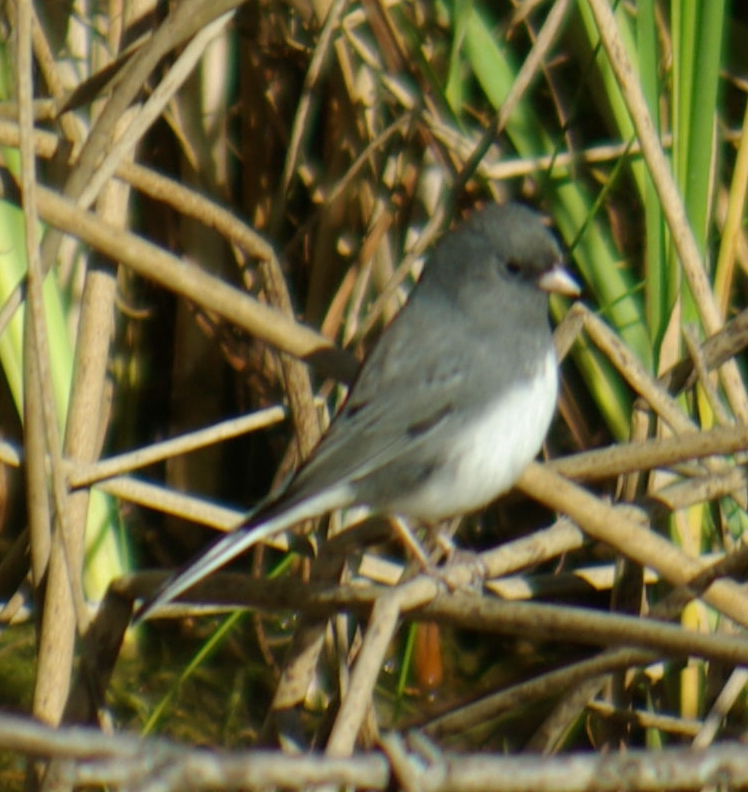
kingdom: Animalia
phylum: Chordata
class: Aves
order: Passeriformes
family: Passerellidae
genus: Junco
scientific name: Junco hyemalis
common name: Dark-eyed junco
